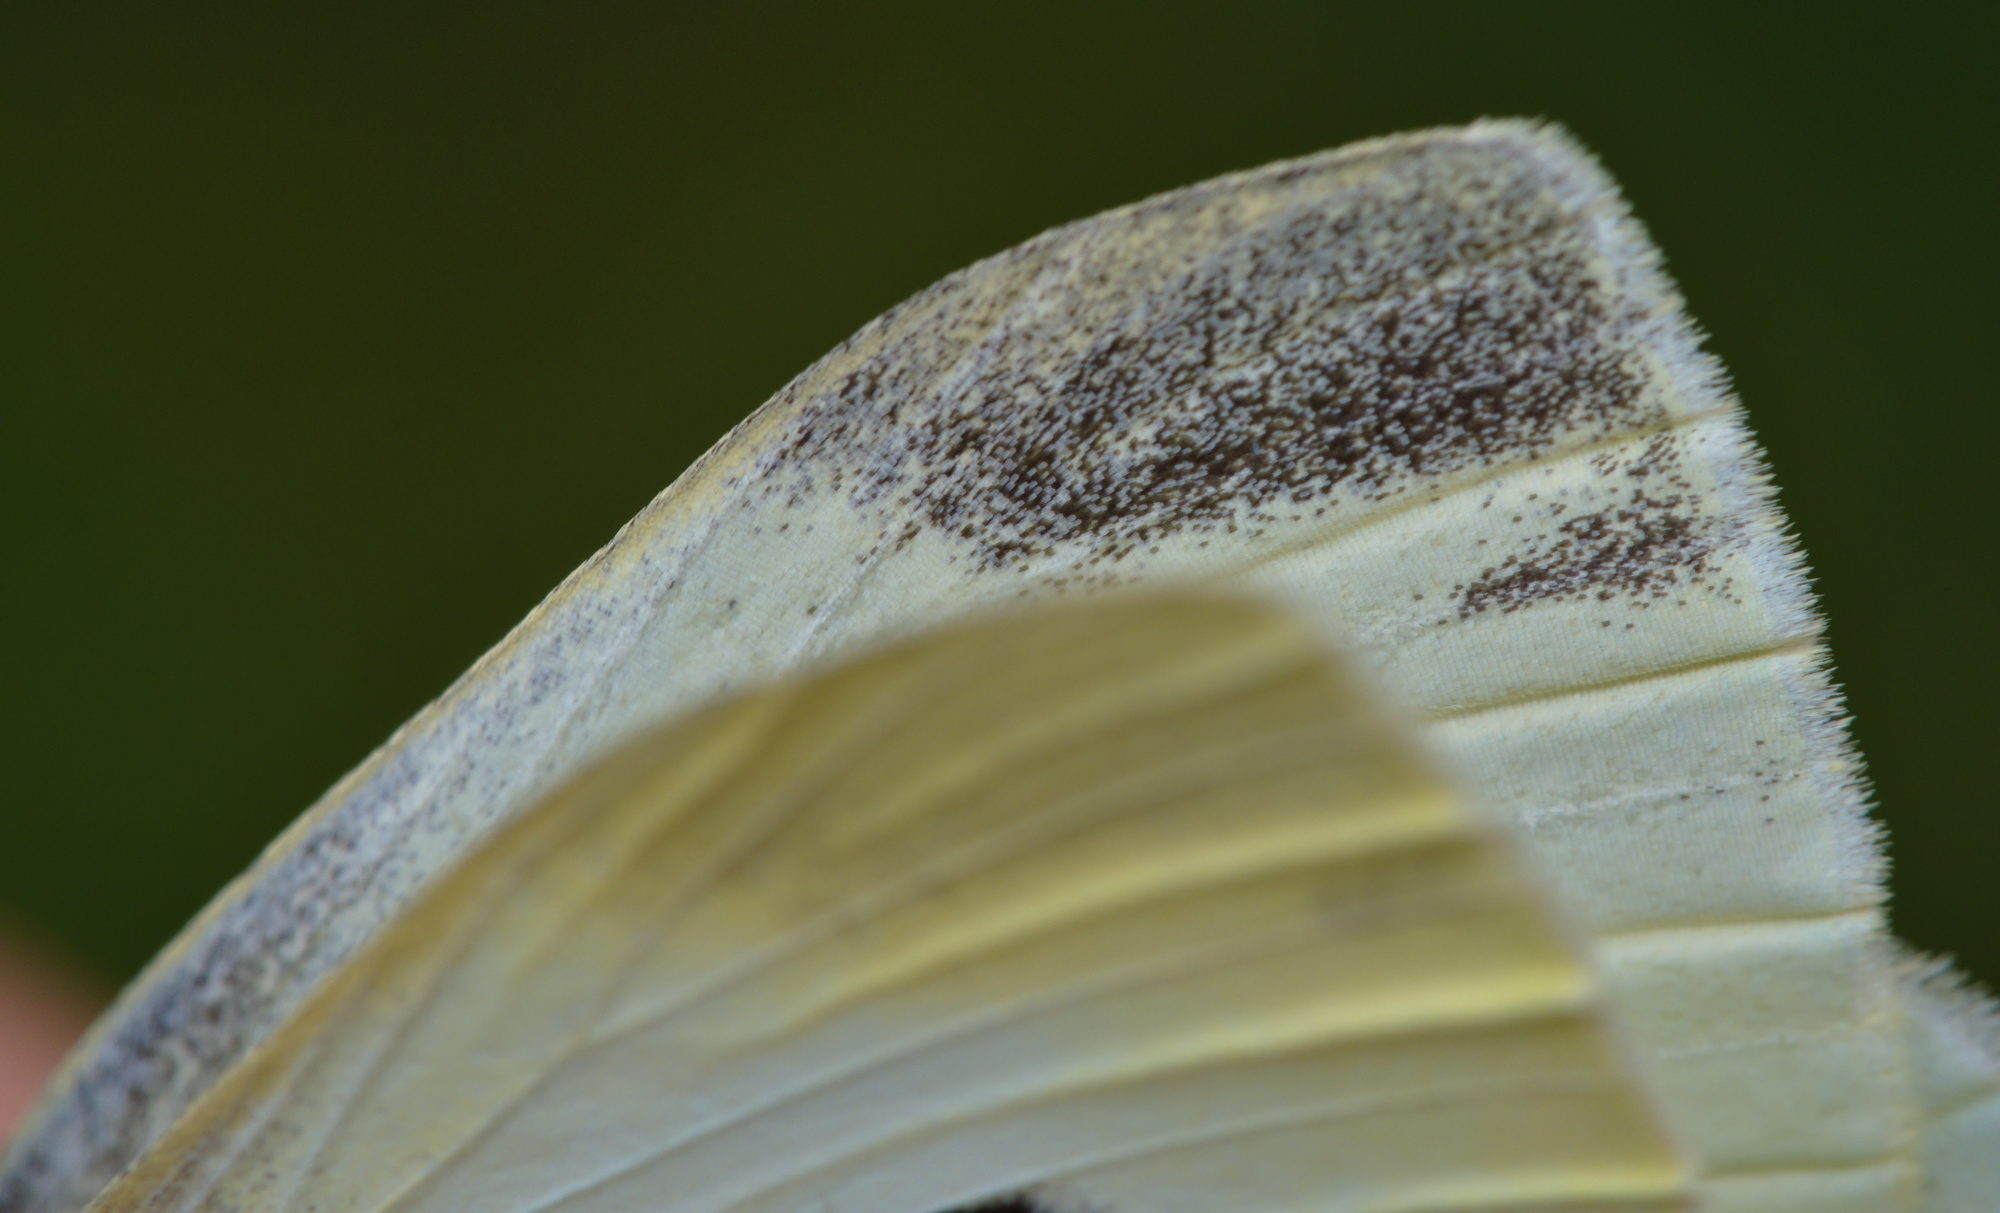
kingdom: Animalia
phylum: Arthropoda
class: Insecta
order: Lepidoptera
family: Pieridae
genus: Pieris
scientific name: Pieris rapae
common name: Small white
